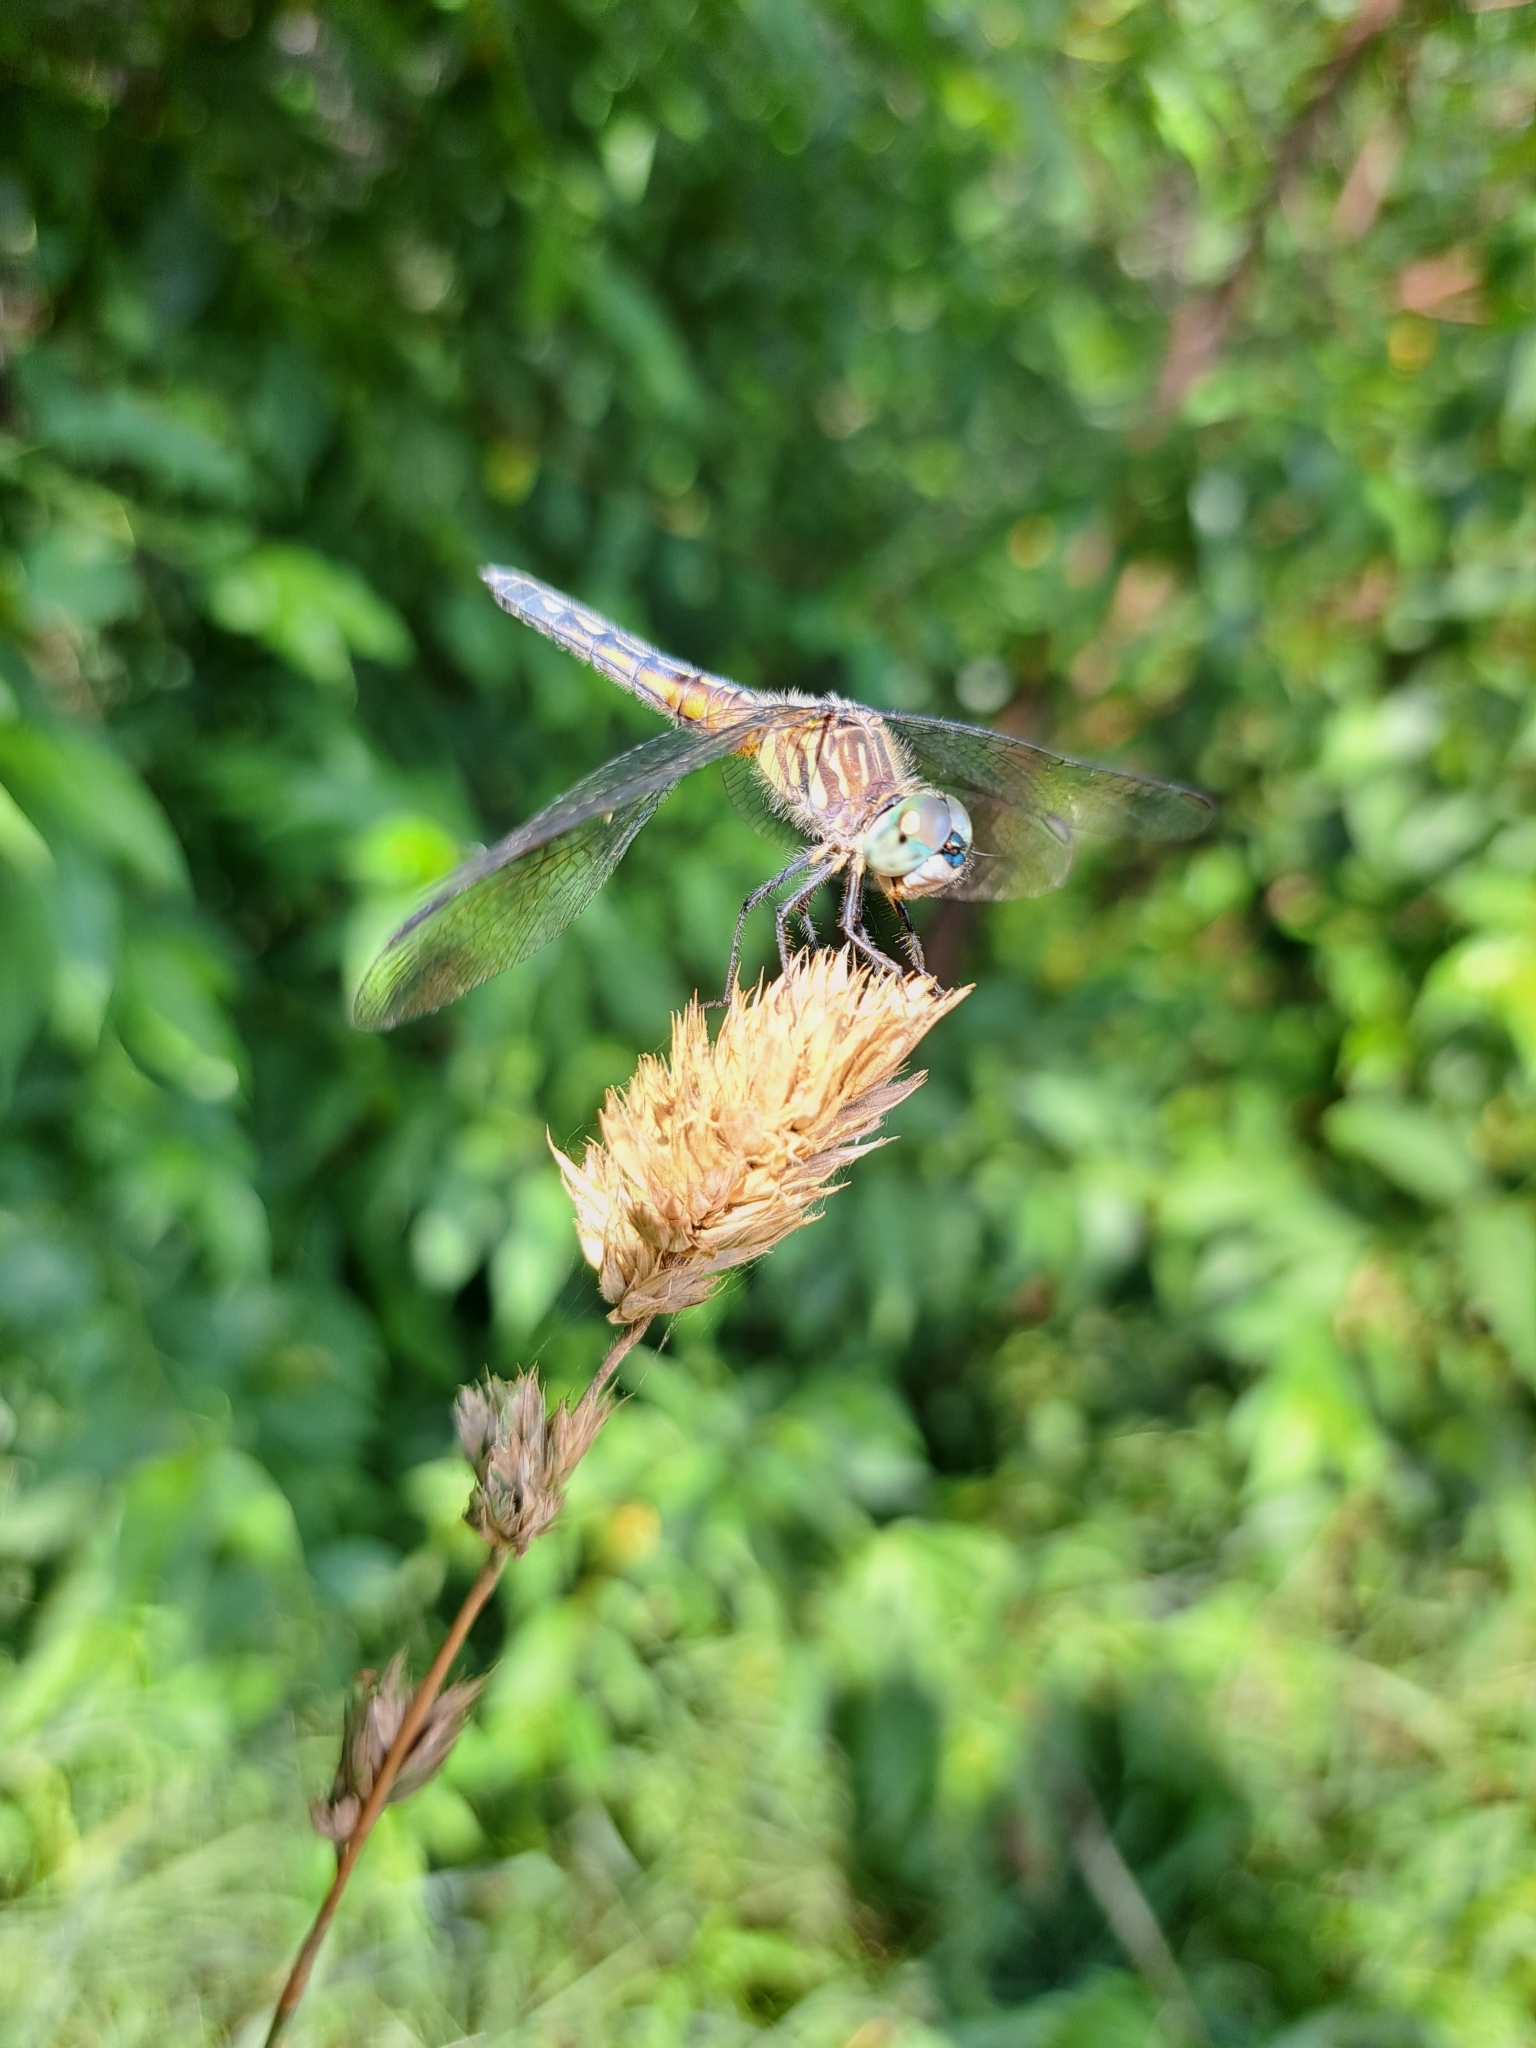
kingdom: Animalia
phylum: Arthropoda
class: Insecta
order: Odonata
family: Libellulidae
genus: Pachydiplax
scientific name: Pachydiplax longipennis
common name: Blue dasher
